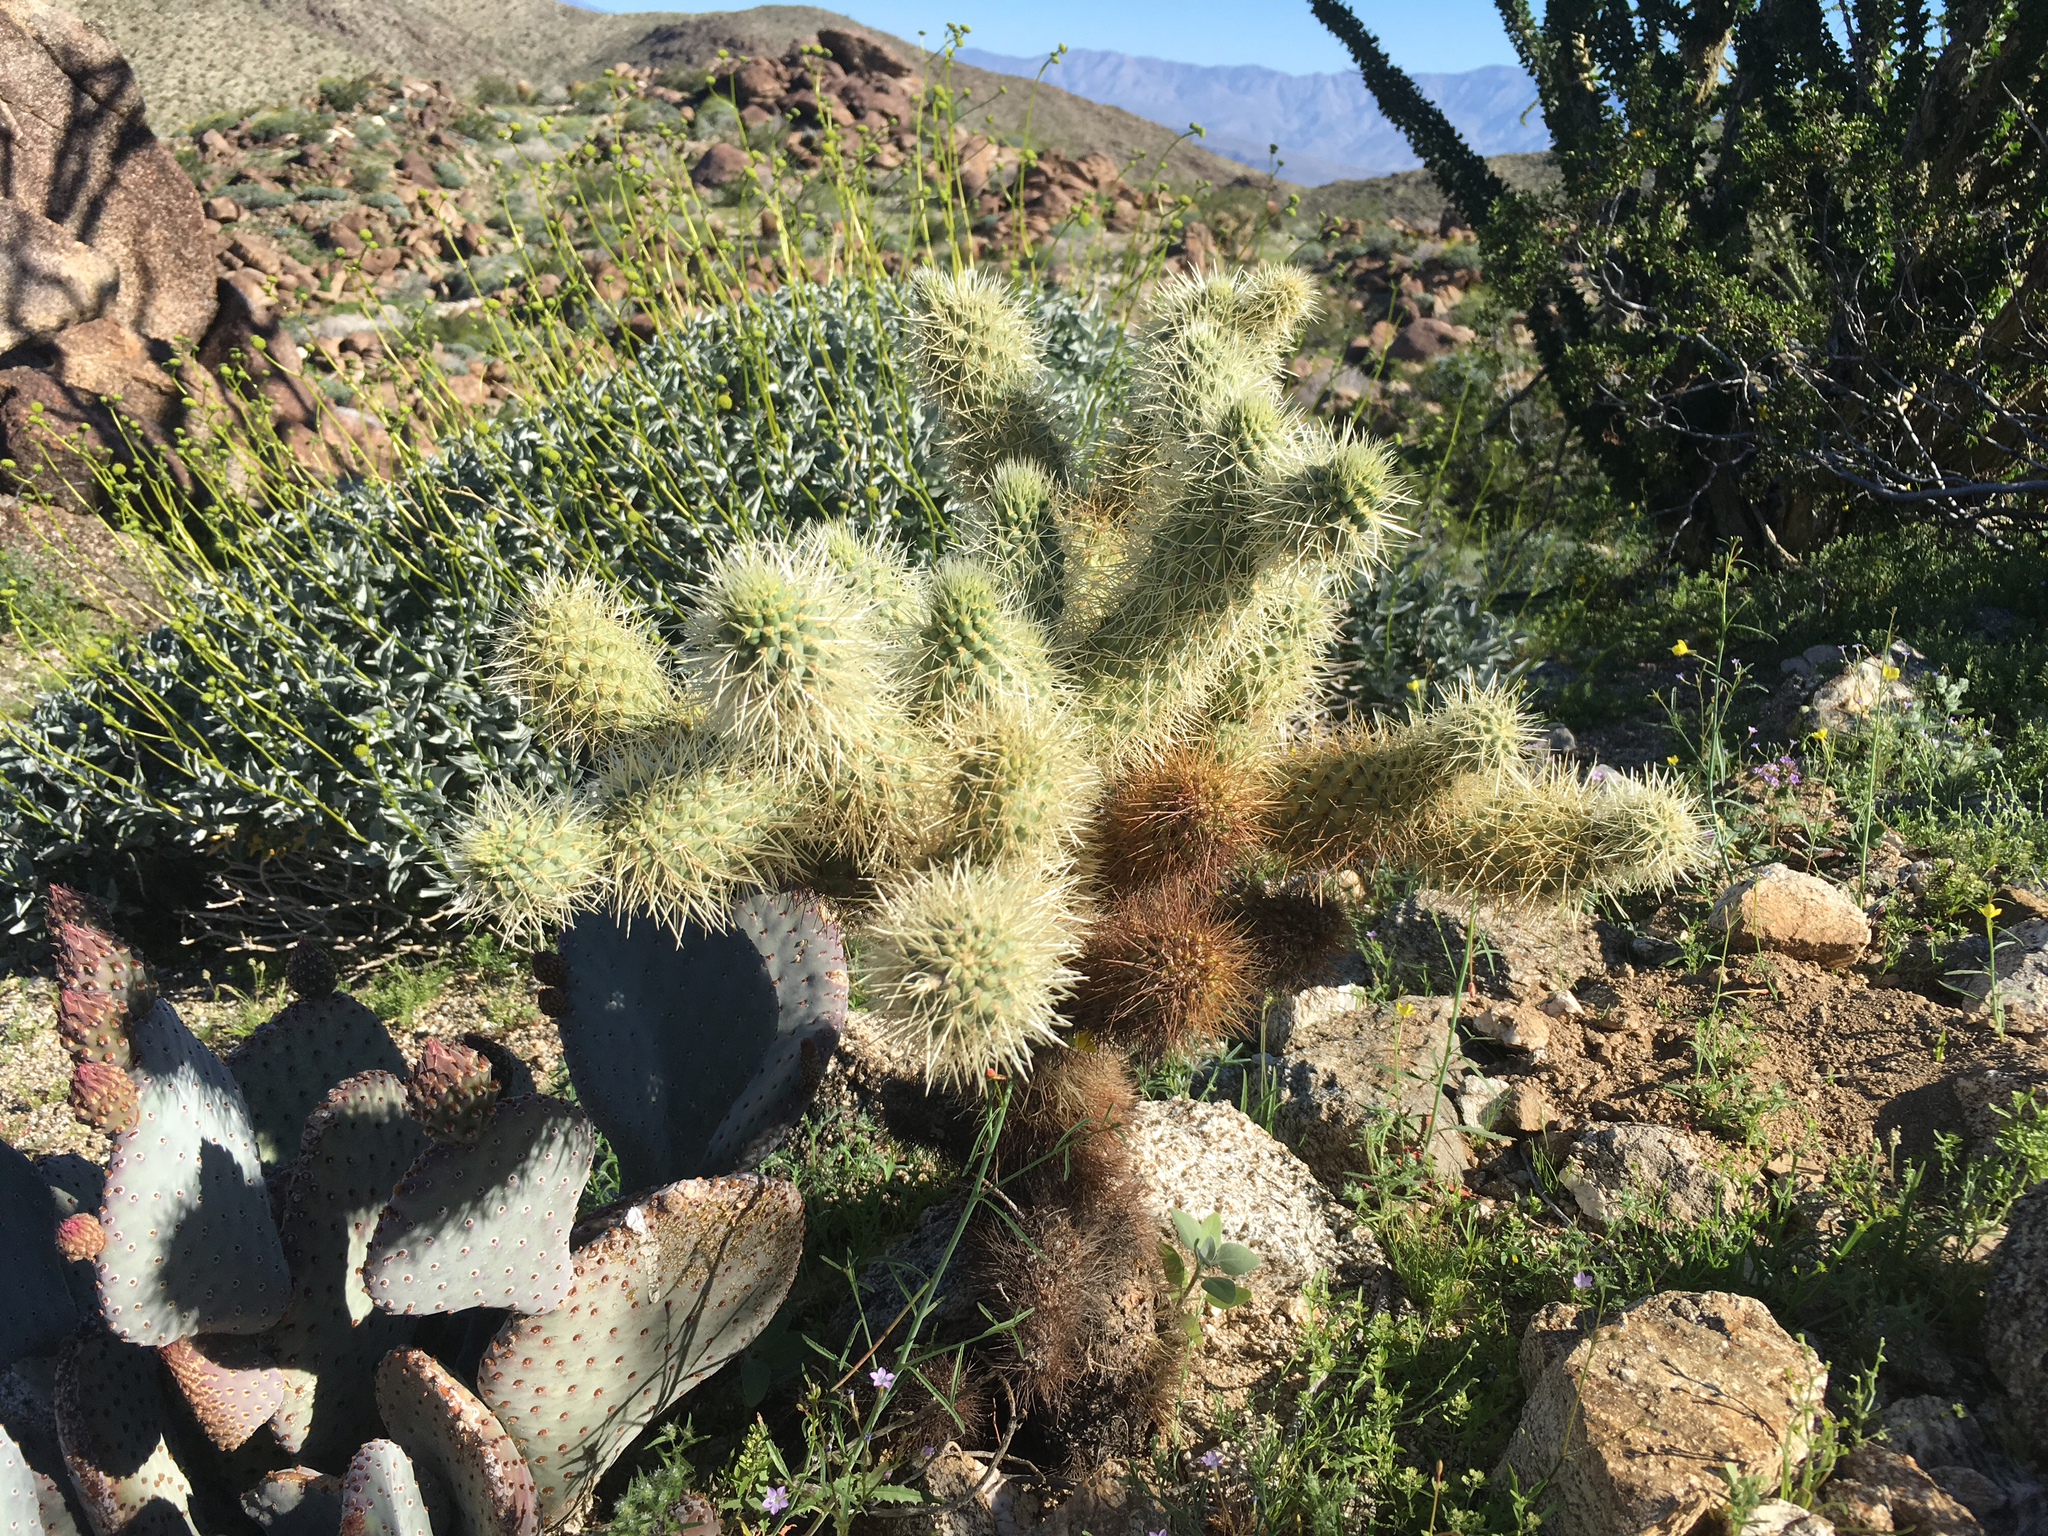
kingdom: Plantae
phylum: Tracheophyta
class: Magnoliopsida
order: Caryophyllales
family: Cactaceae
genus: Cylindropuntia
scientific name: Cylindropuntia fosbergii
